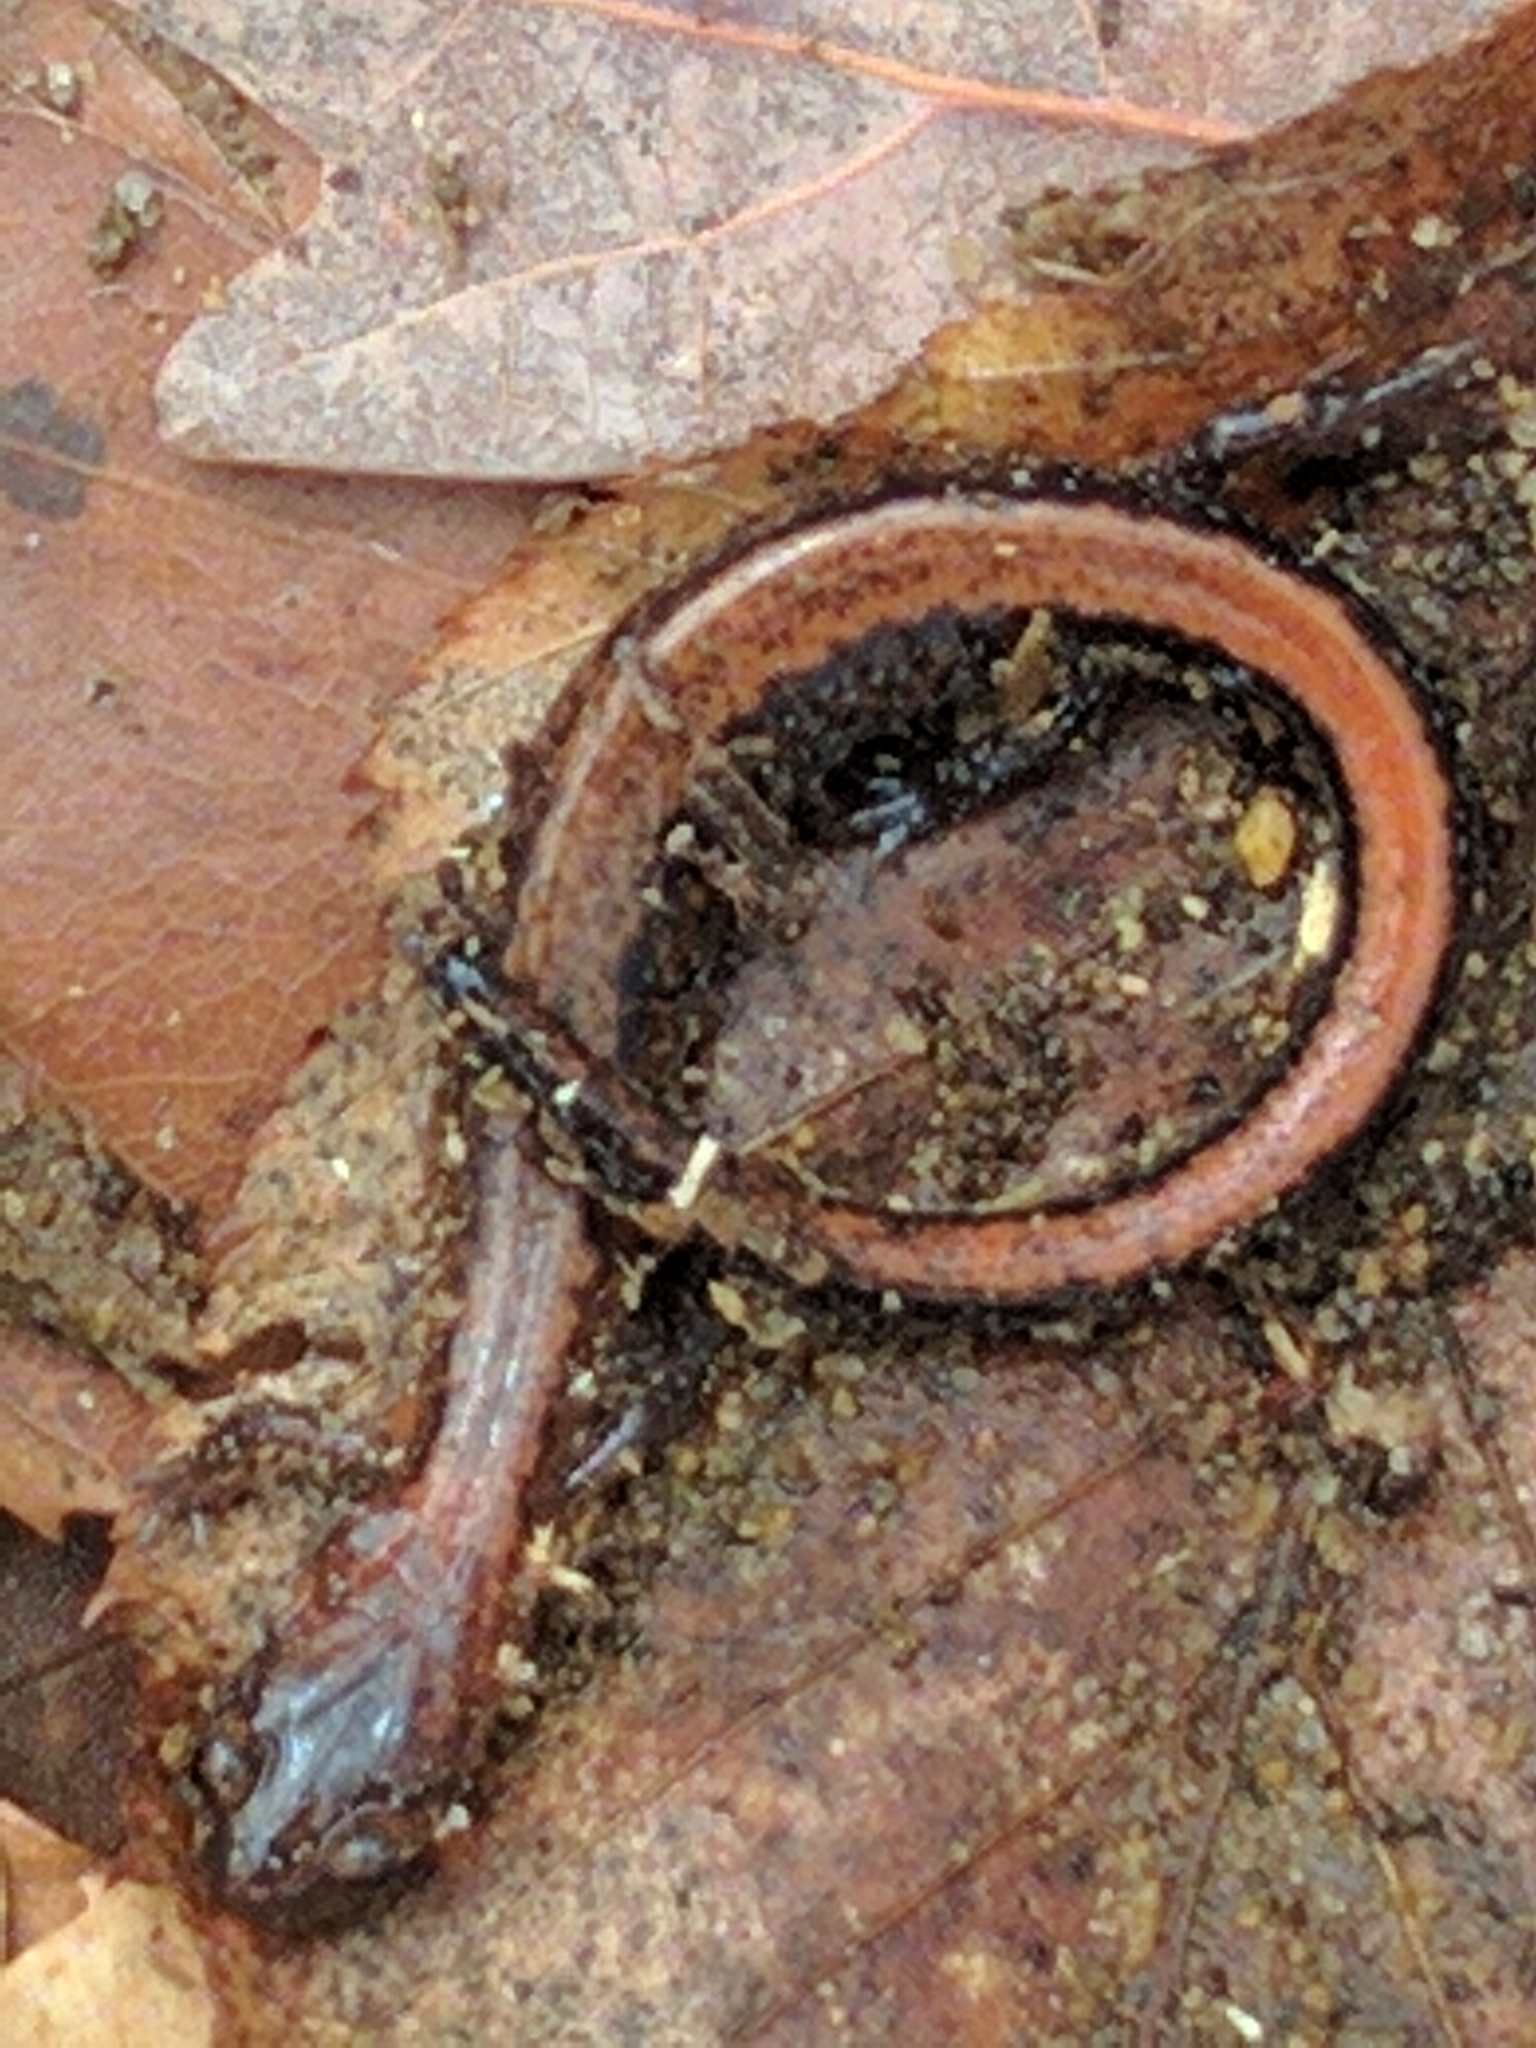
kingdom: Animalia
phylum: Chordata
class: Amphibia
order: Caudata
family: Plethodontidae
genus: Plethodon
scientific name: Plethodon cinereus
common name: Redback salamander
